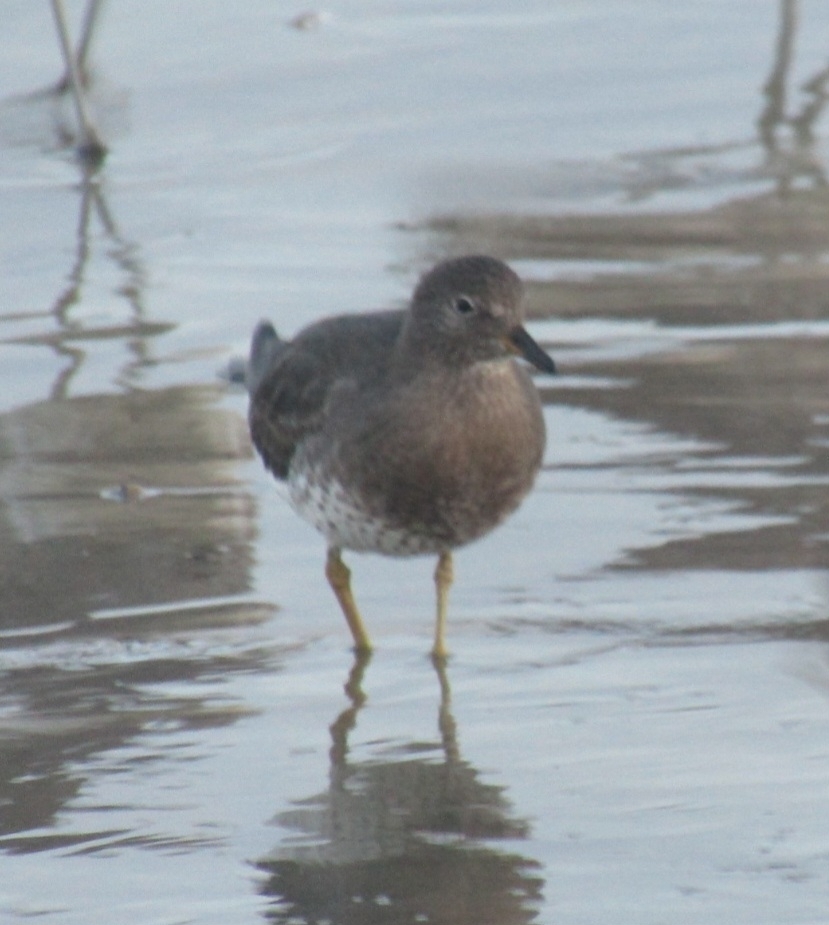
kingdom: Animalia
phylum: Chordata
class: Aves
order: Charadriiformes
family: Scolopacidae
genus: Calidris
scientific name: Calidris virgata
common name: Surfbird
